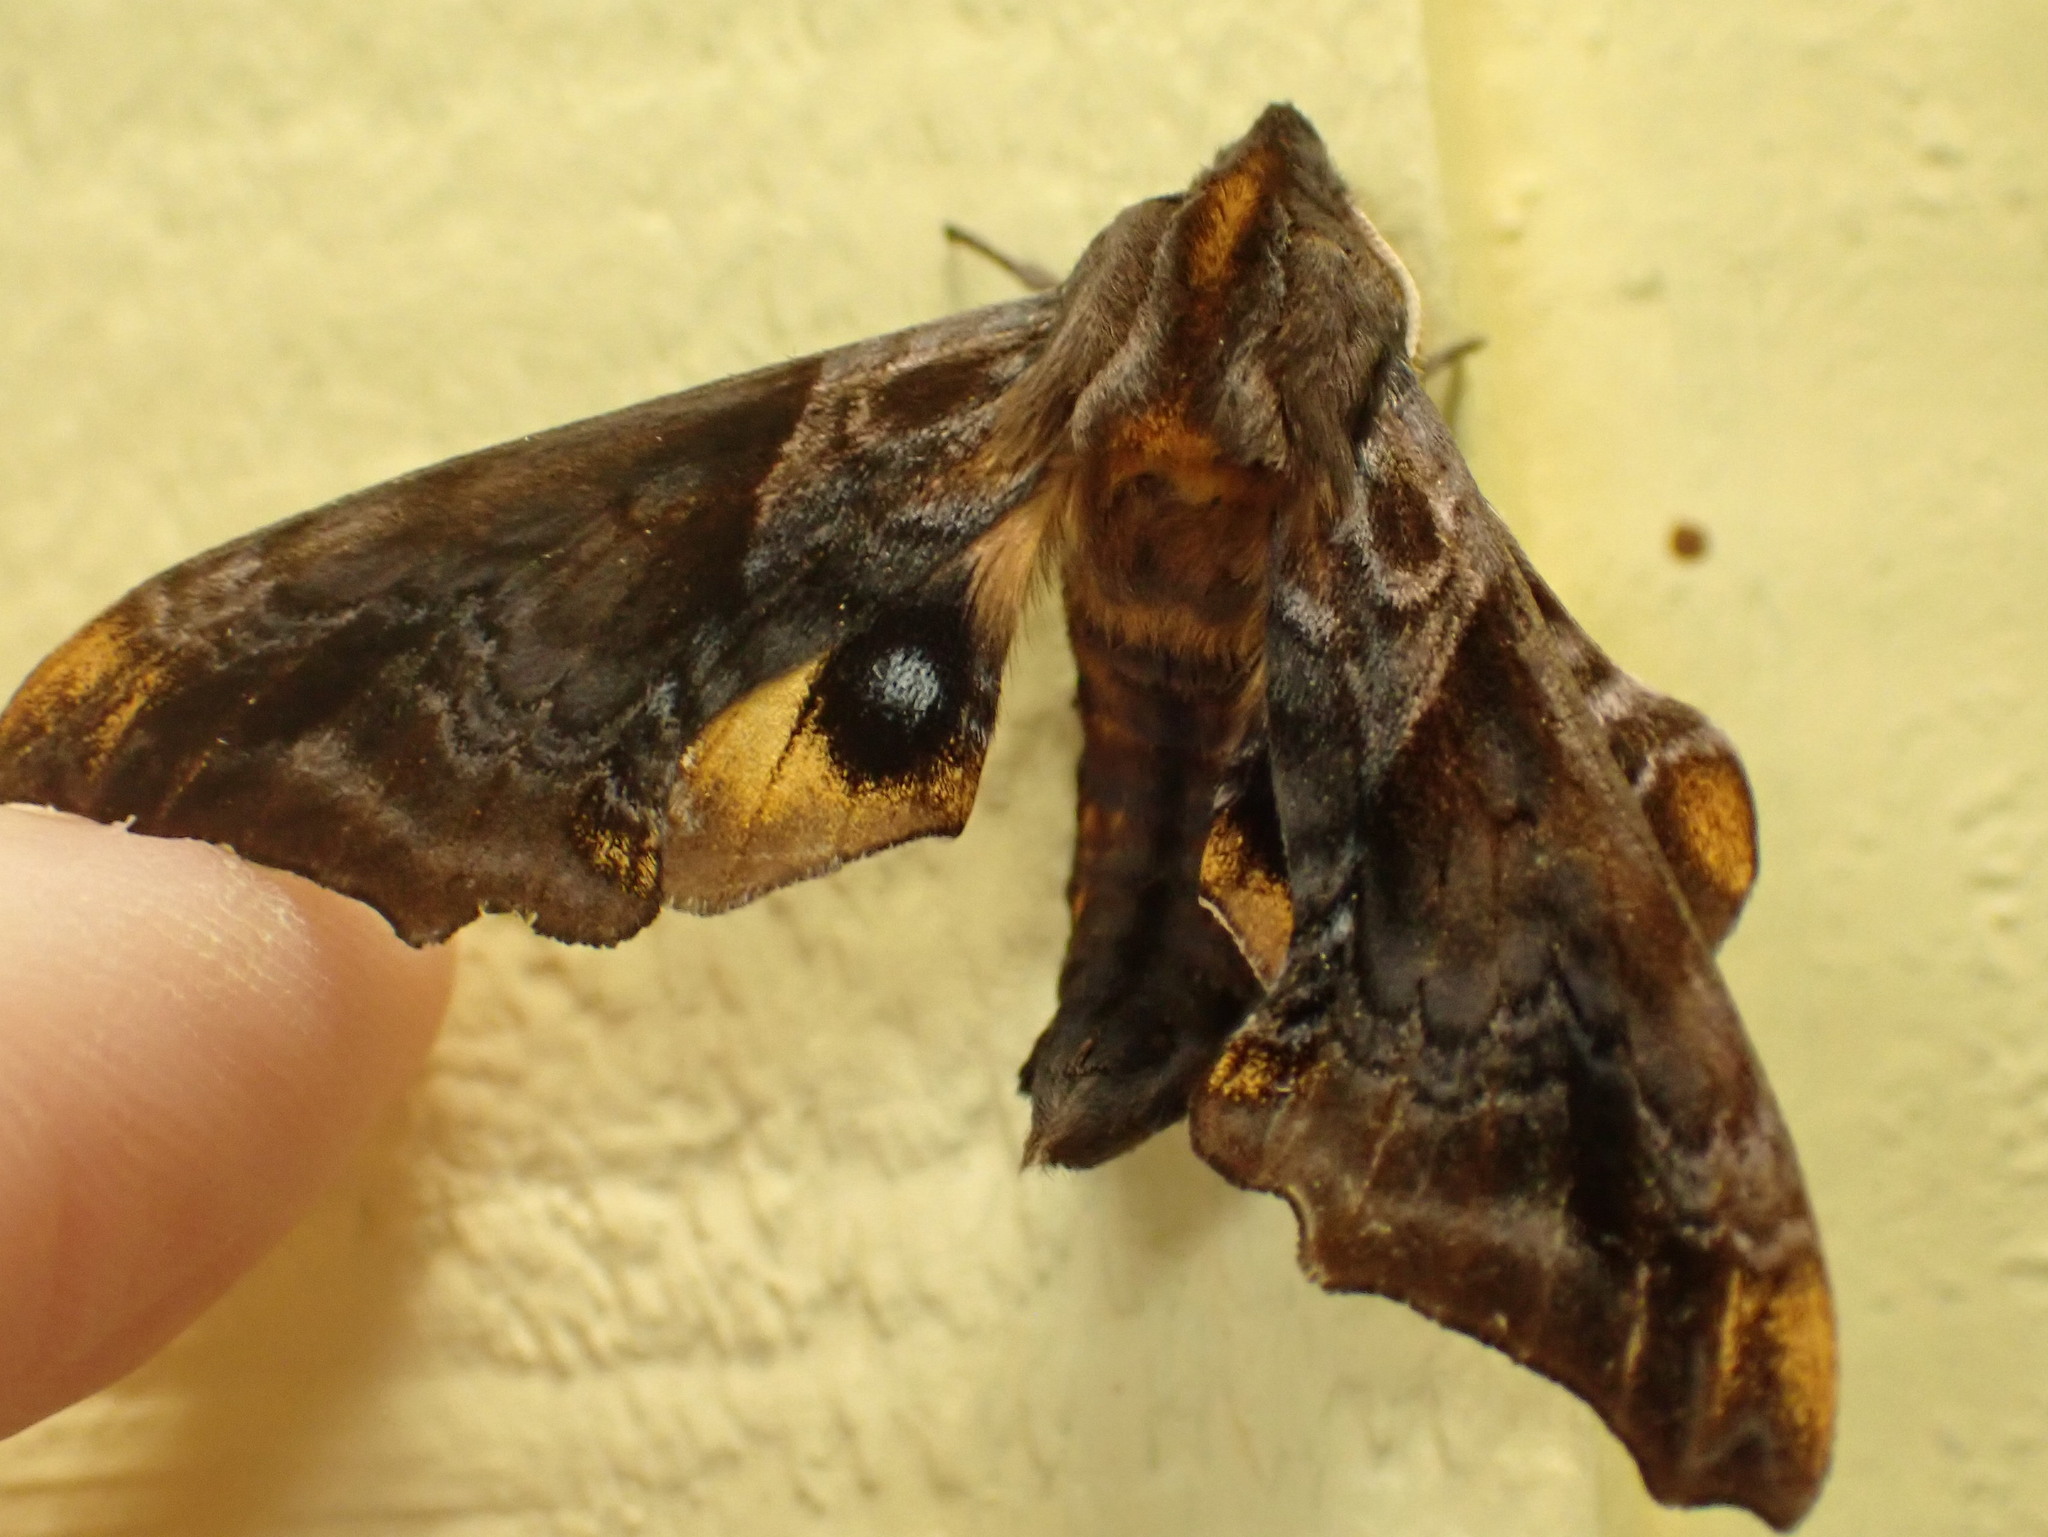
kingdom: Animalia
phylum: Arthropoda
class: Insecta
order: Lepidoptera
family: Sphingidae
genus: Paonias
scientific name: Paonias myops
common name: Small-eyed sphinx
